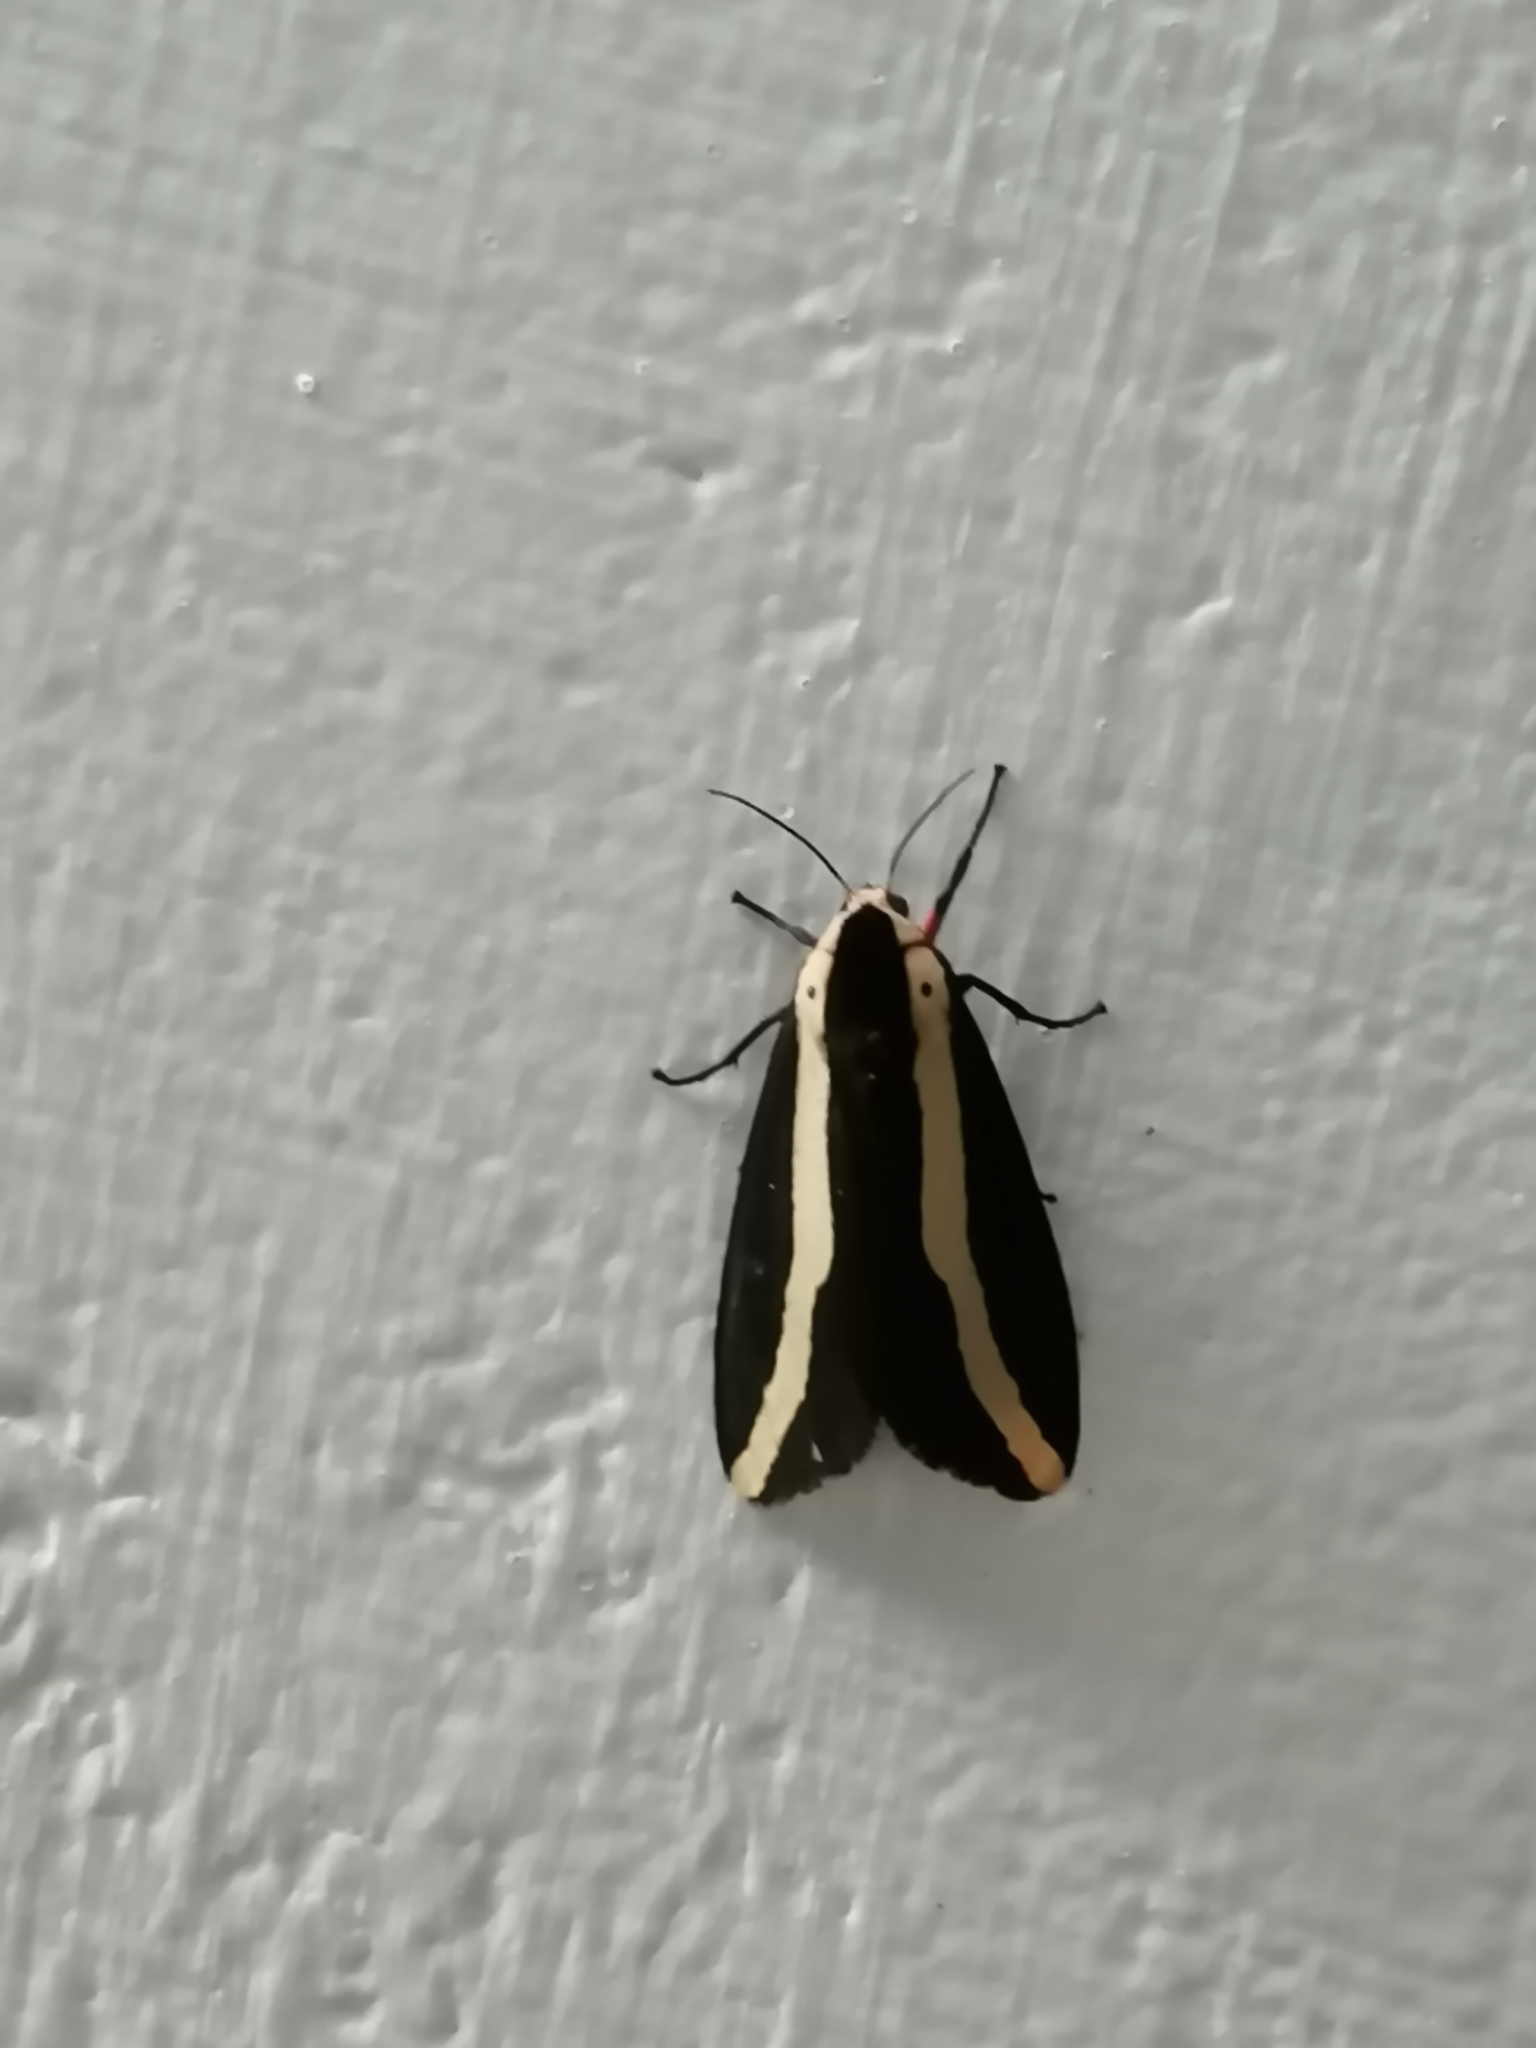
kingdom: Animalia
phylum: Arthropoda
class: Insecta
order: Lepidoptera
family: Erebidae
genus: Estigmene
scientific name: Estigmene
